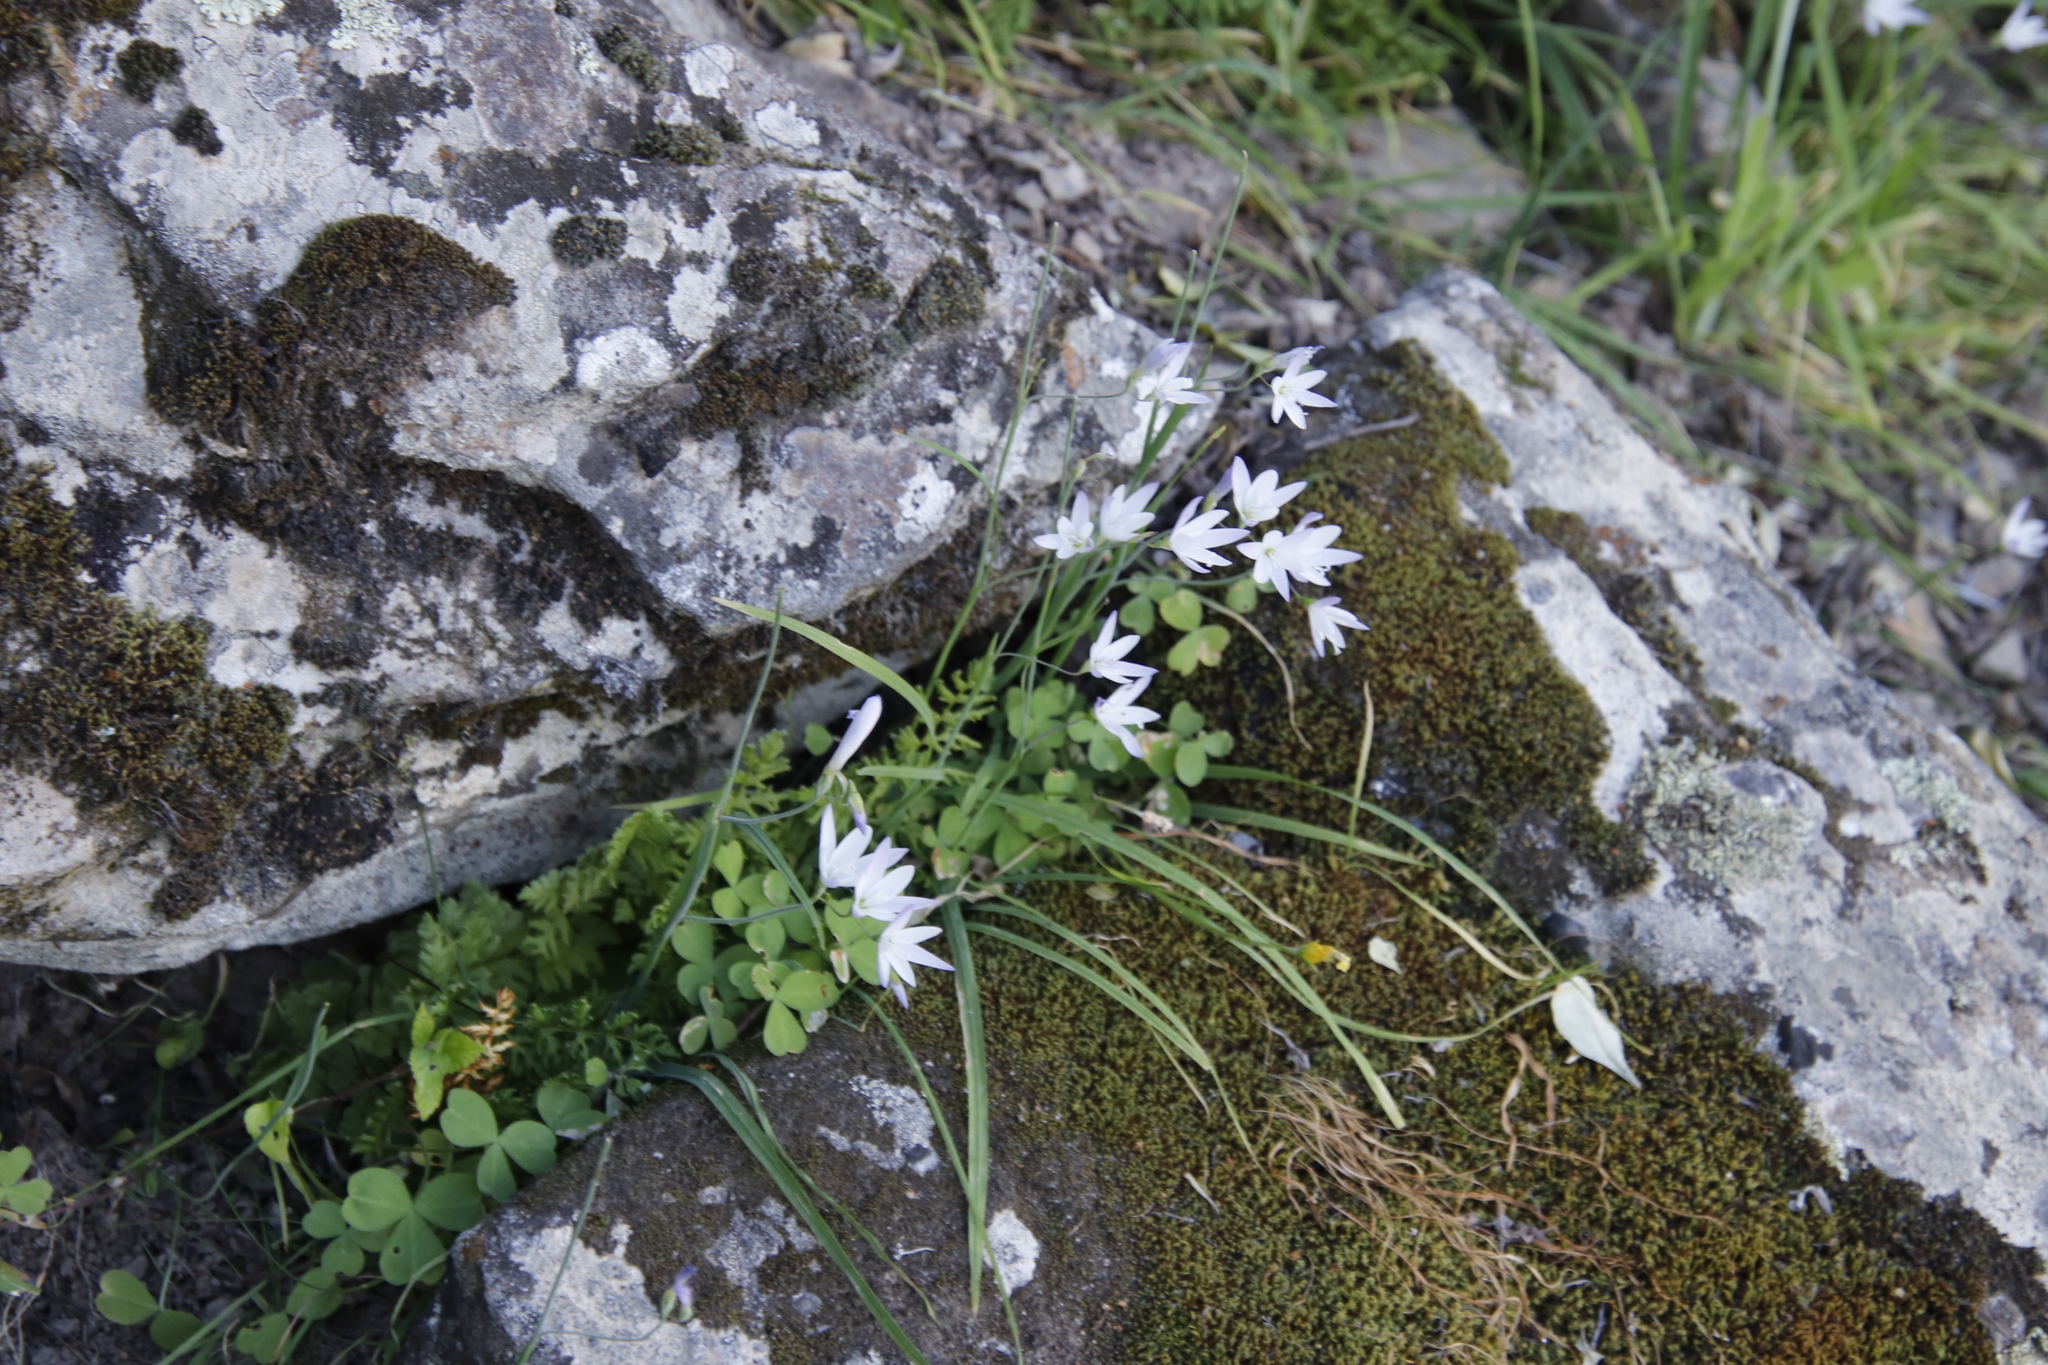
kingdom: Plantae
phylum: Tracheophyta
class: Liliopsida
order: Asparagales
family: Iridaceae
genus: Geissorhiza
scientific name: Geissorhiza inaequalis
